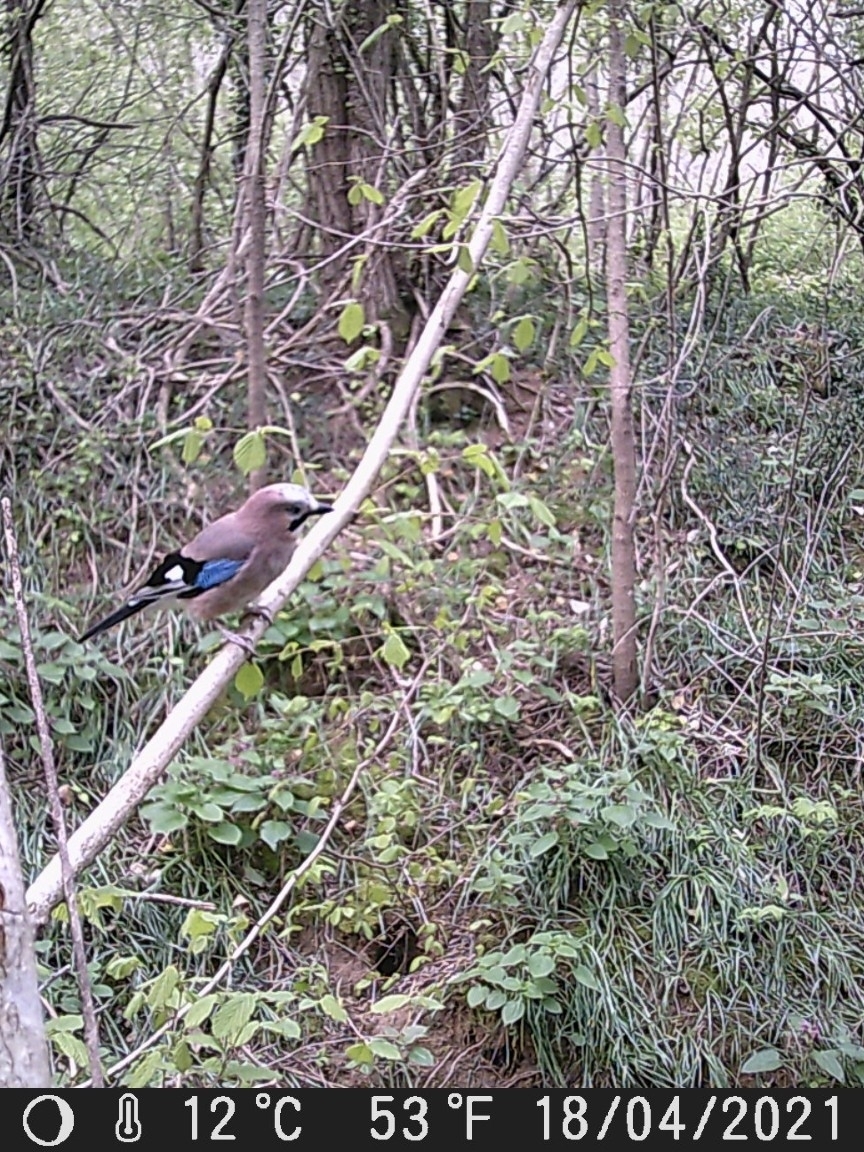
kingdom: Animalia
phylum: Chordata
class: Aves
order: Passeriformes
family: Corvidae
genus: Garrulus
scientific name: Garrulus glandarius
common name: Eurasian jay
